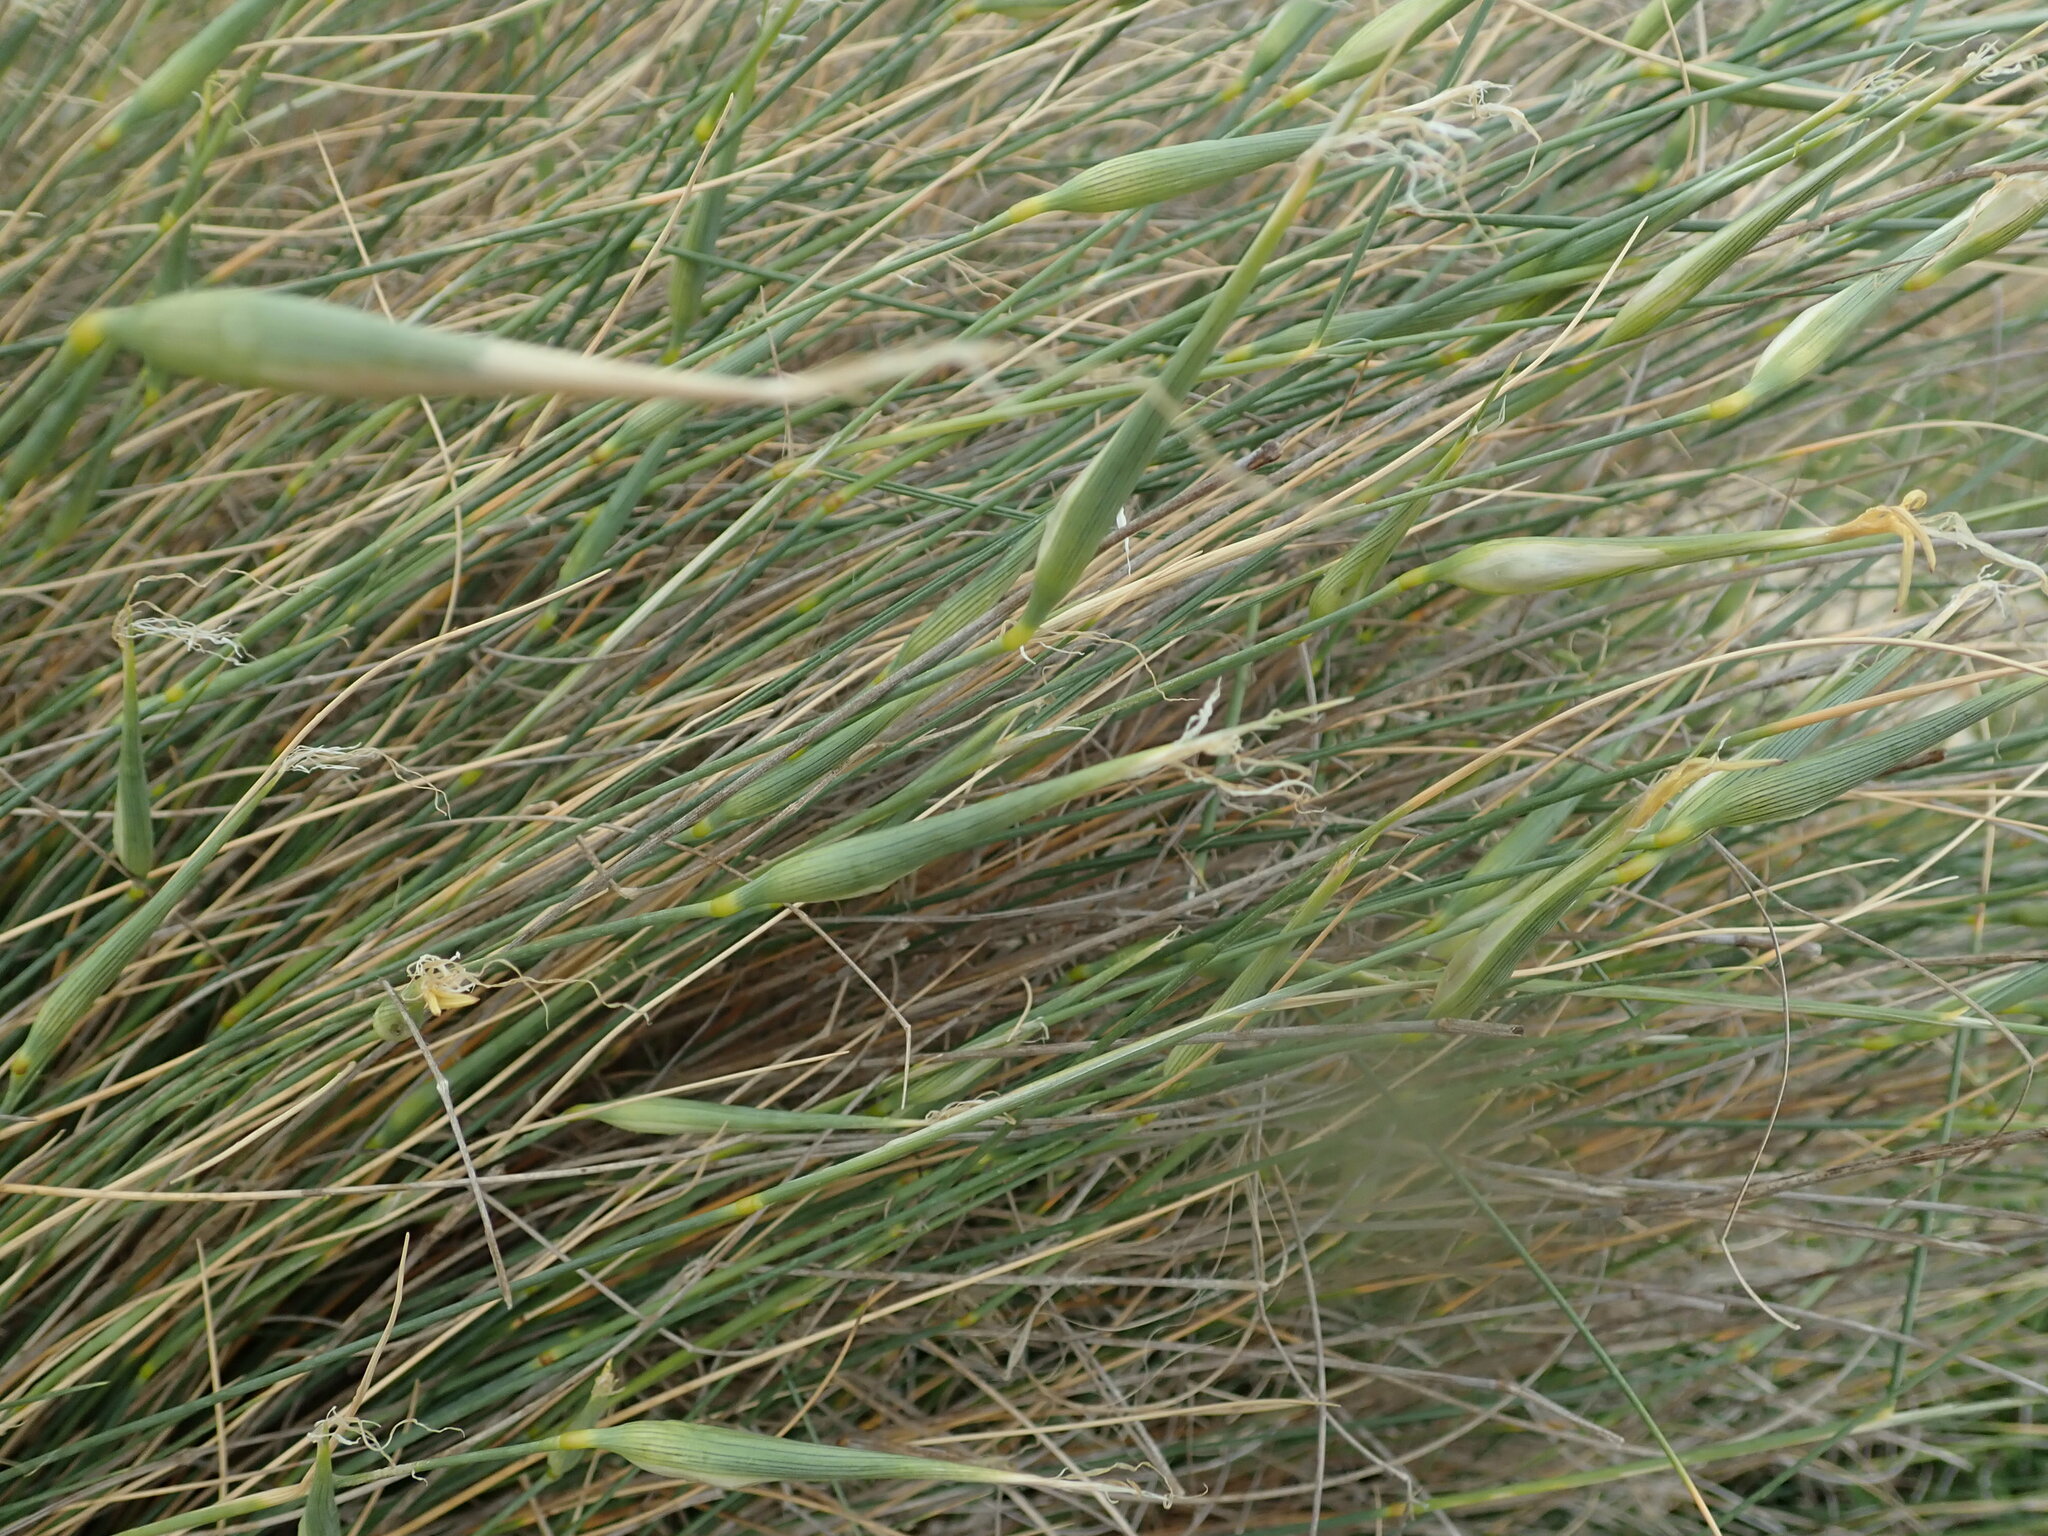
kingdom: Plantae
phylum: Tracheophyta
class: Liliopsida
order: Poales
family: Poaceae
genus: Lygeum
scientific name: Lygeum spartum
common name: Albardine
